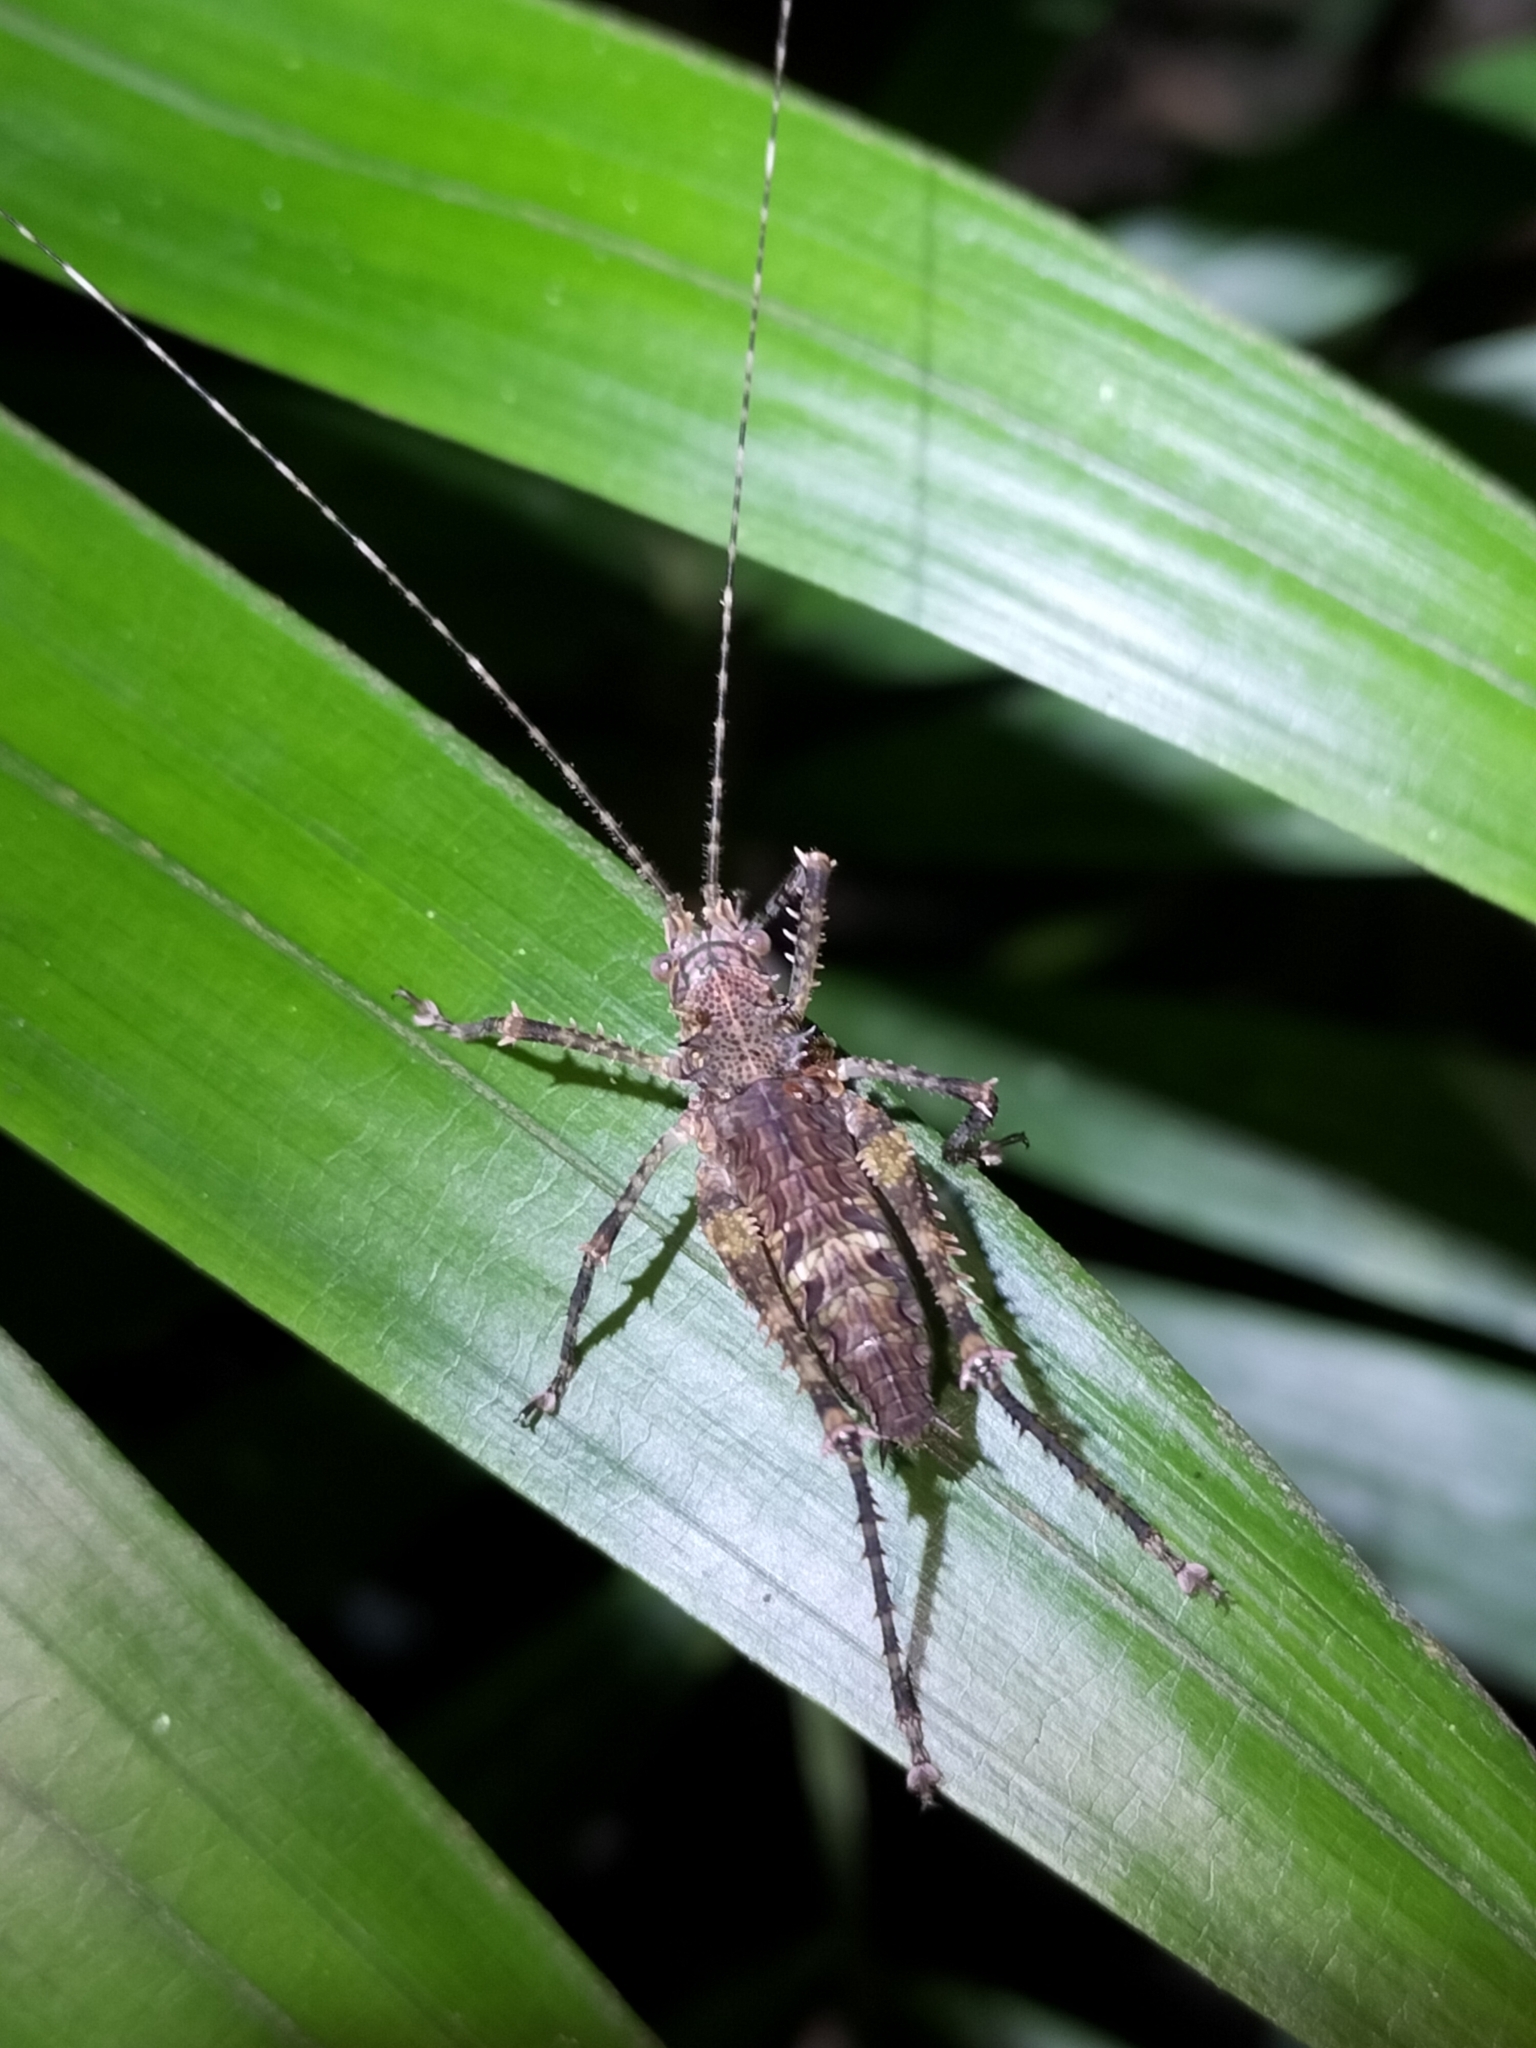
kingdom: Animalia
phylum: Arthropoda
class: Insecta
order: Orthoptera
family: Tettigoniidae
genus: Phricta
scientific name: Phricta spinosa
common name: Giant spiny forest katydid
